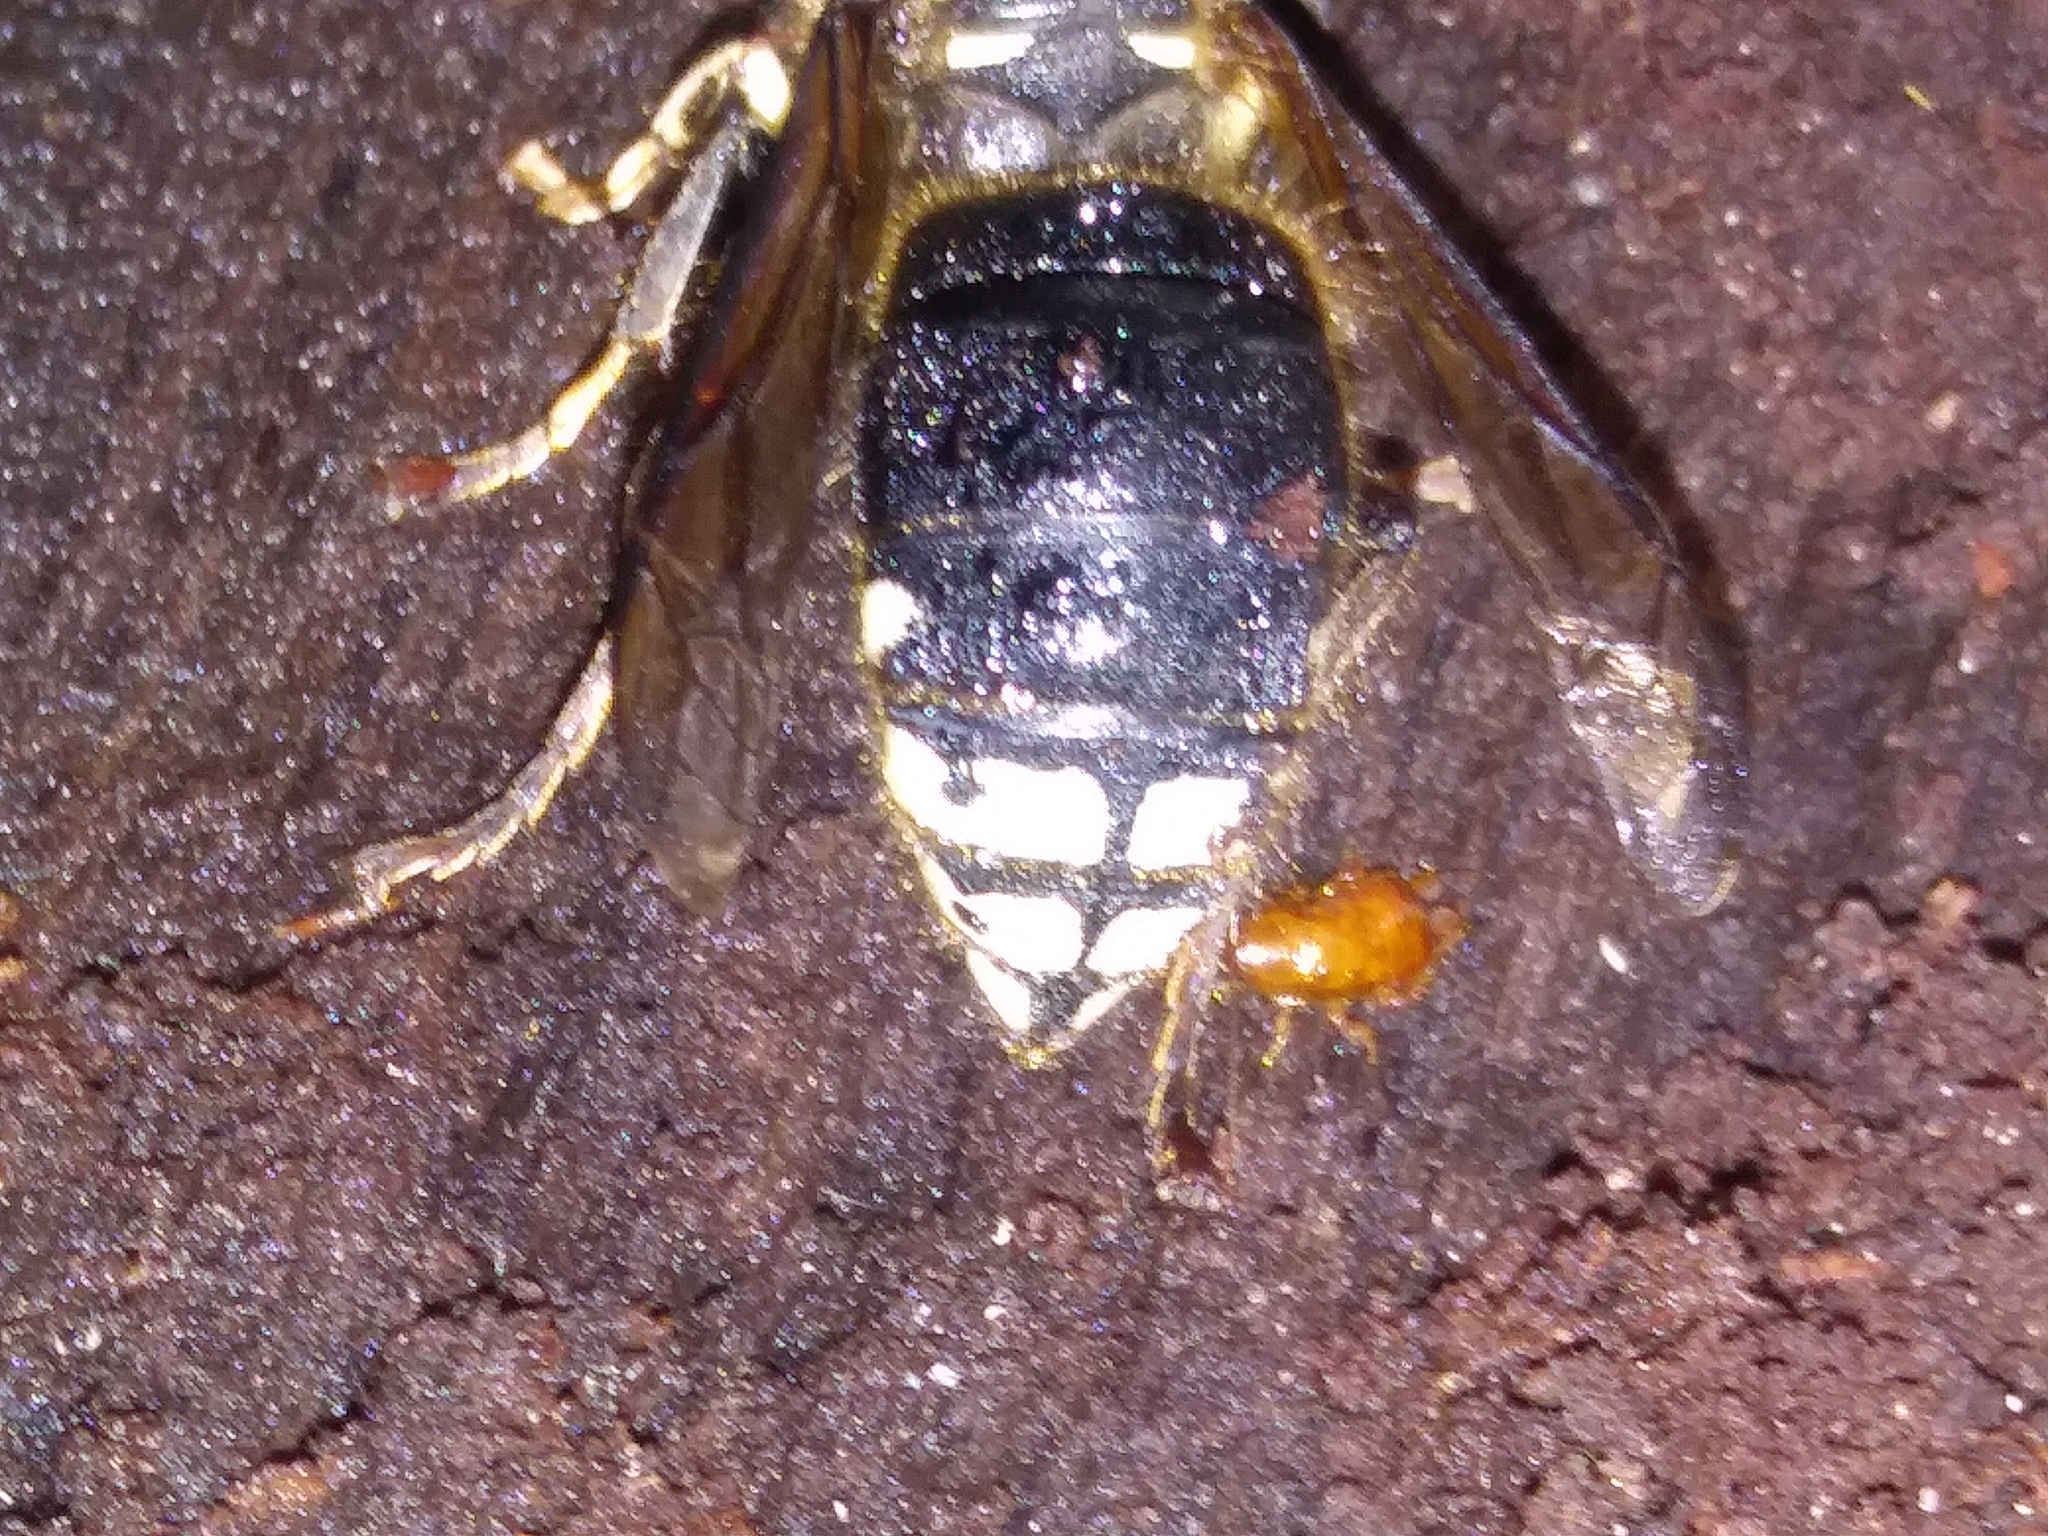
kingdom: Animalia
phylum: Arthropoda
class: Insecta
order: Hymenoptera
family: Vespidae
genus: Dolichovespula
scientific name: Dolichovespula maculata
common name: Bald-faced hornet
